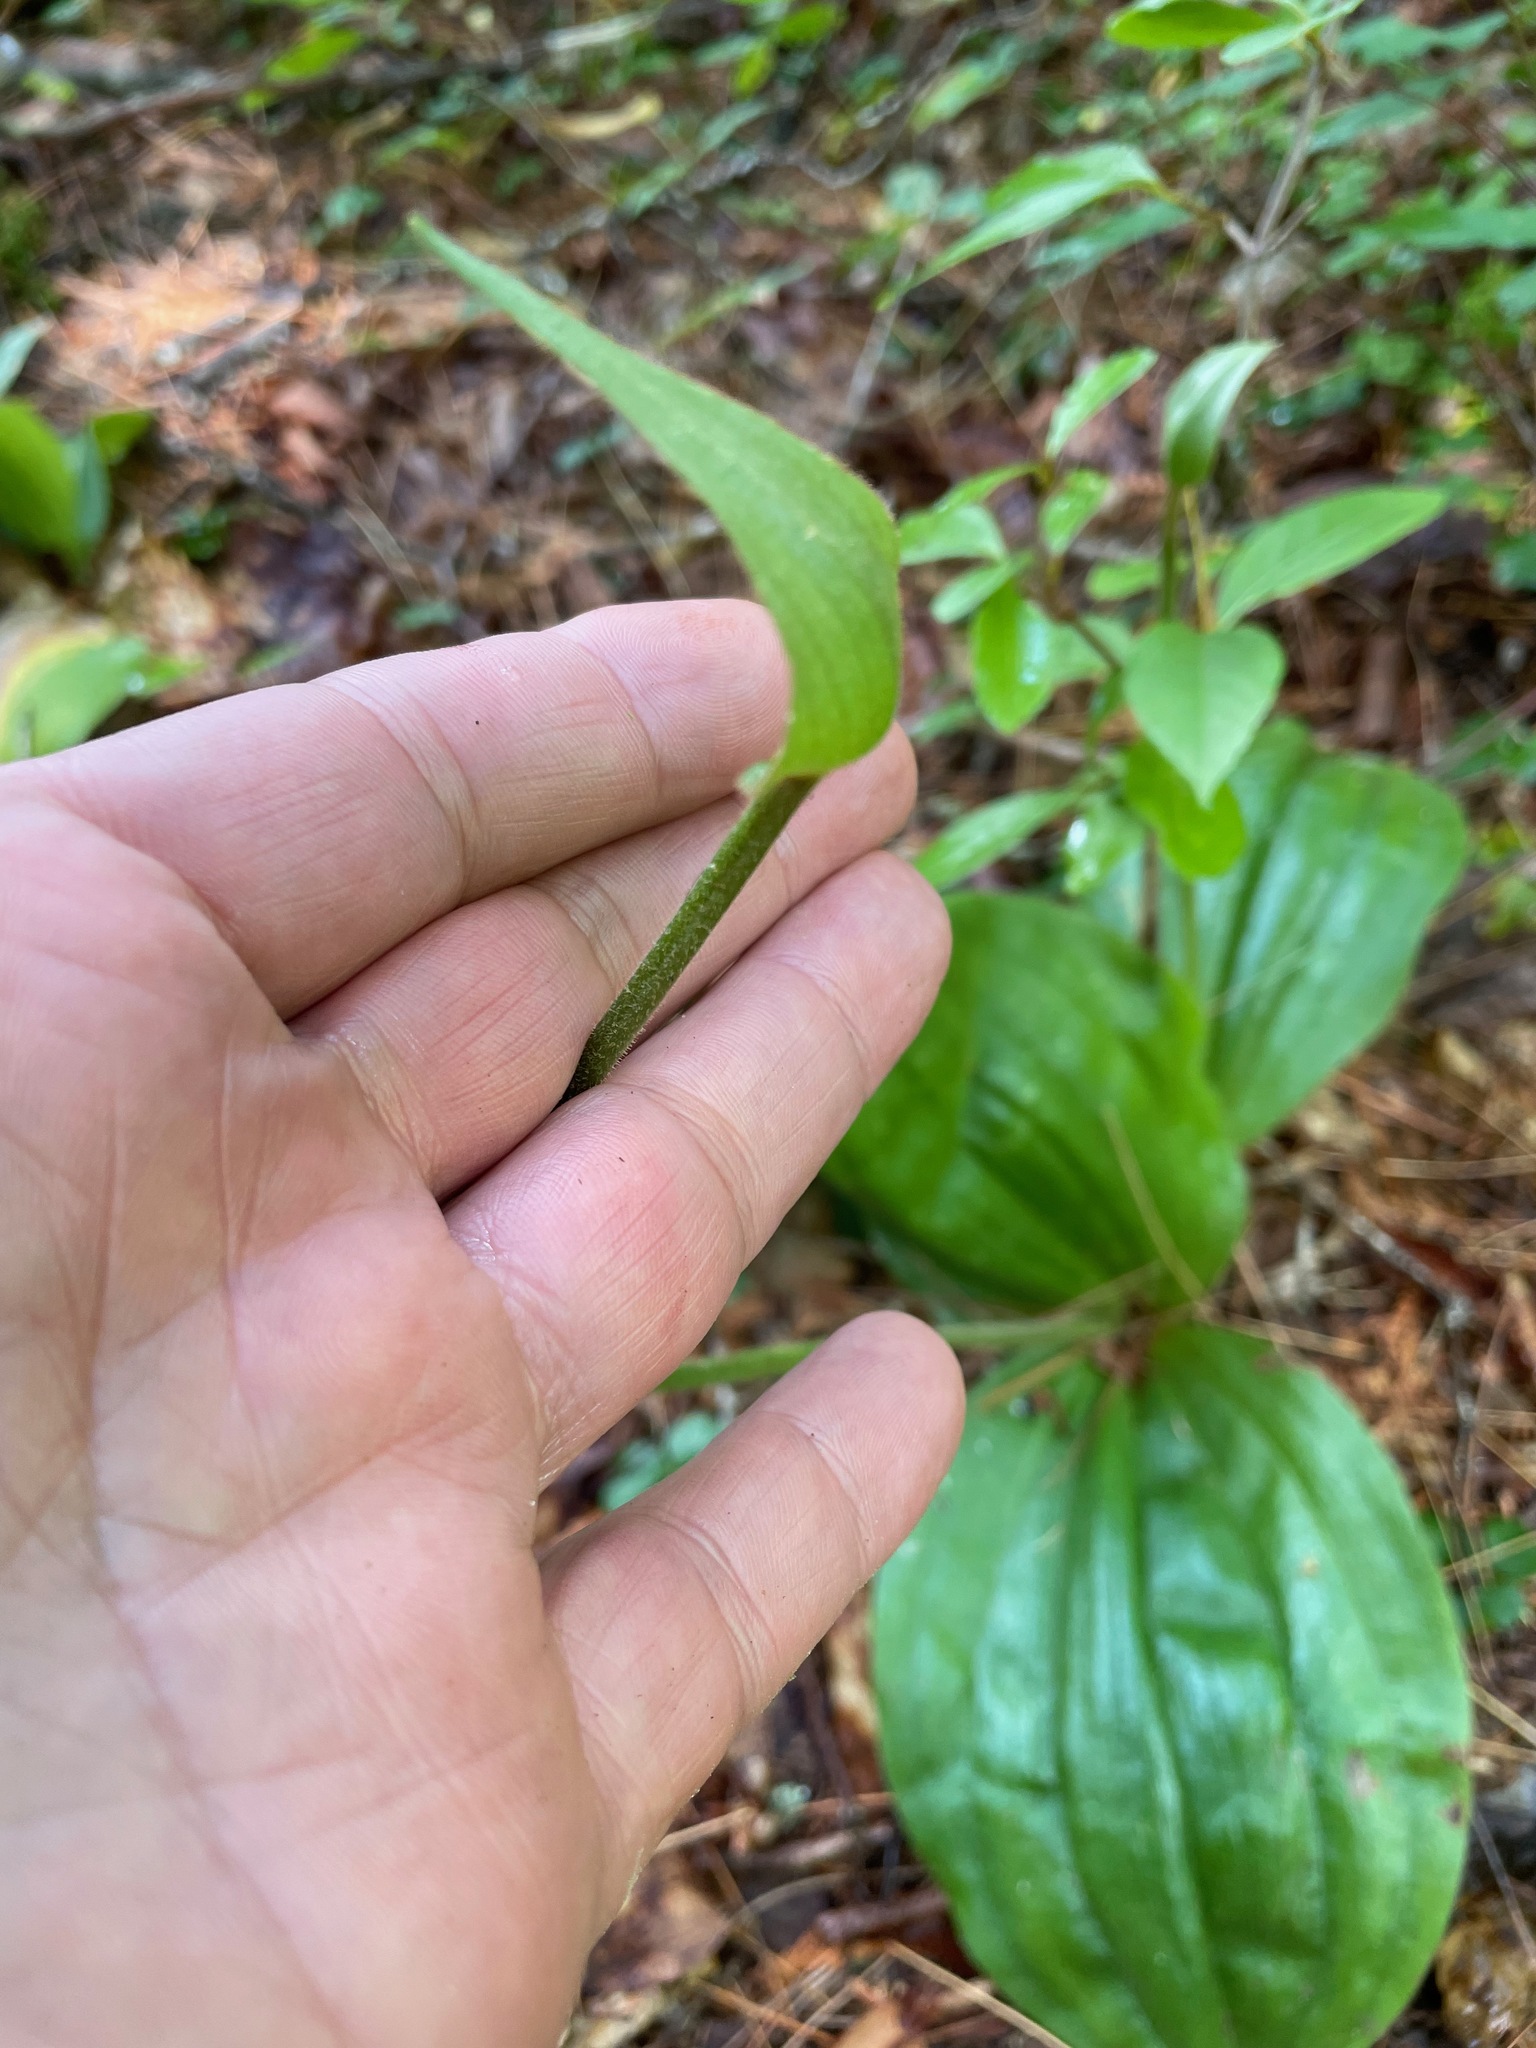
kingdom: Plantae
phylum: Tracheophyta
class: Liliopsida
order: Asparagales
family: Orchidaceae
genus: Cypripedium
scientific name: Cypripedium acaule
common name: Pink lady's-slipper
